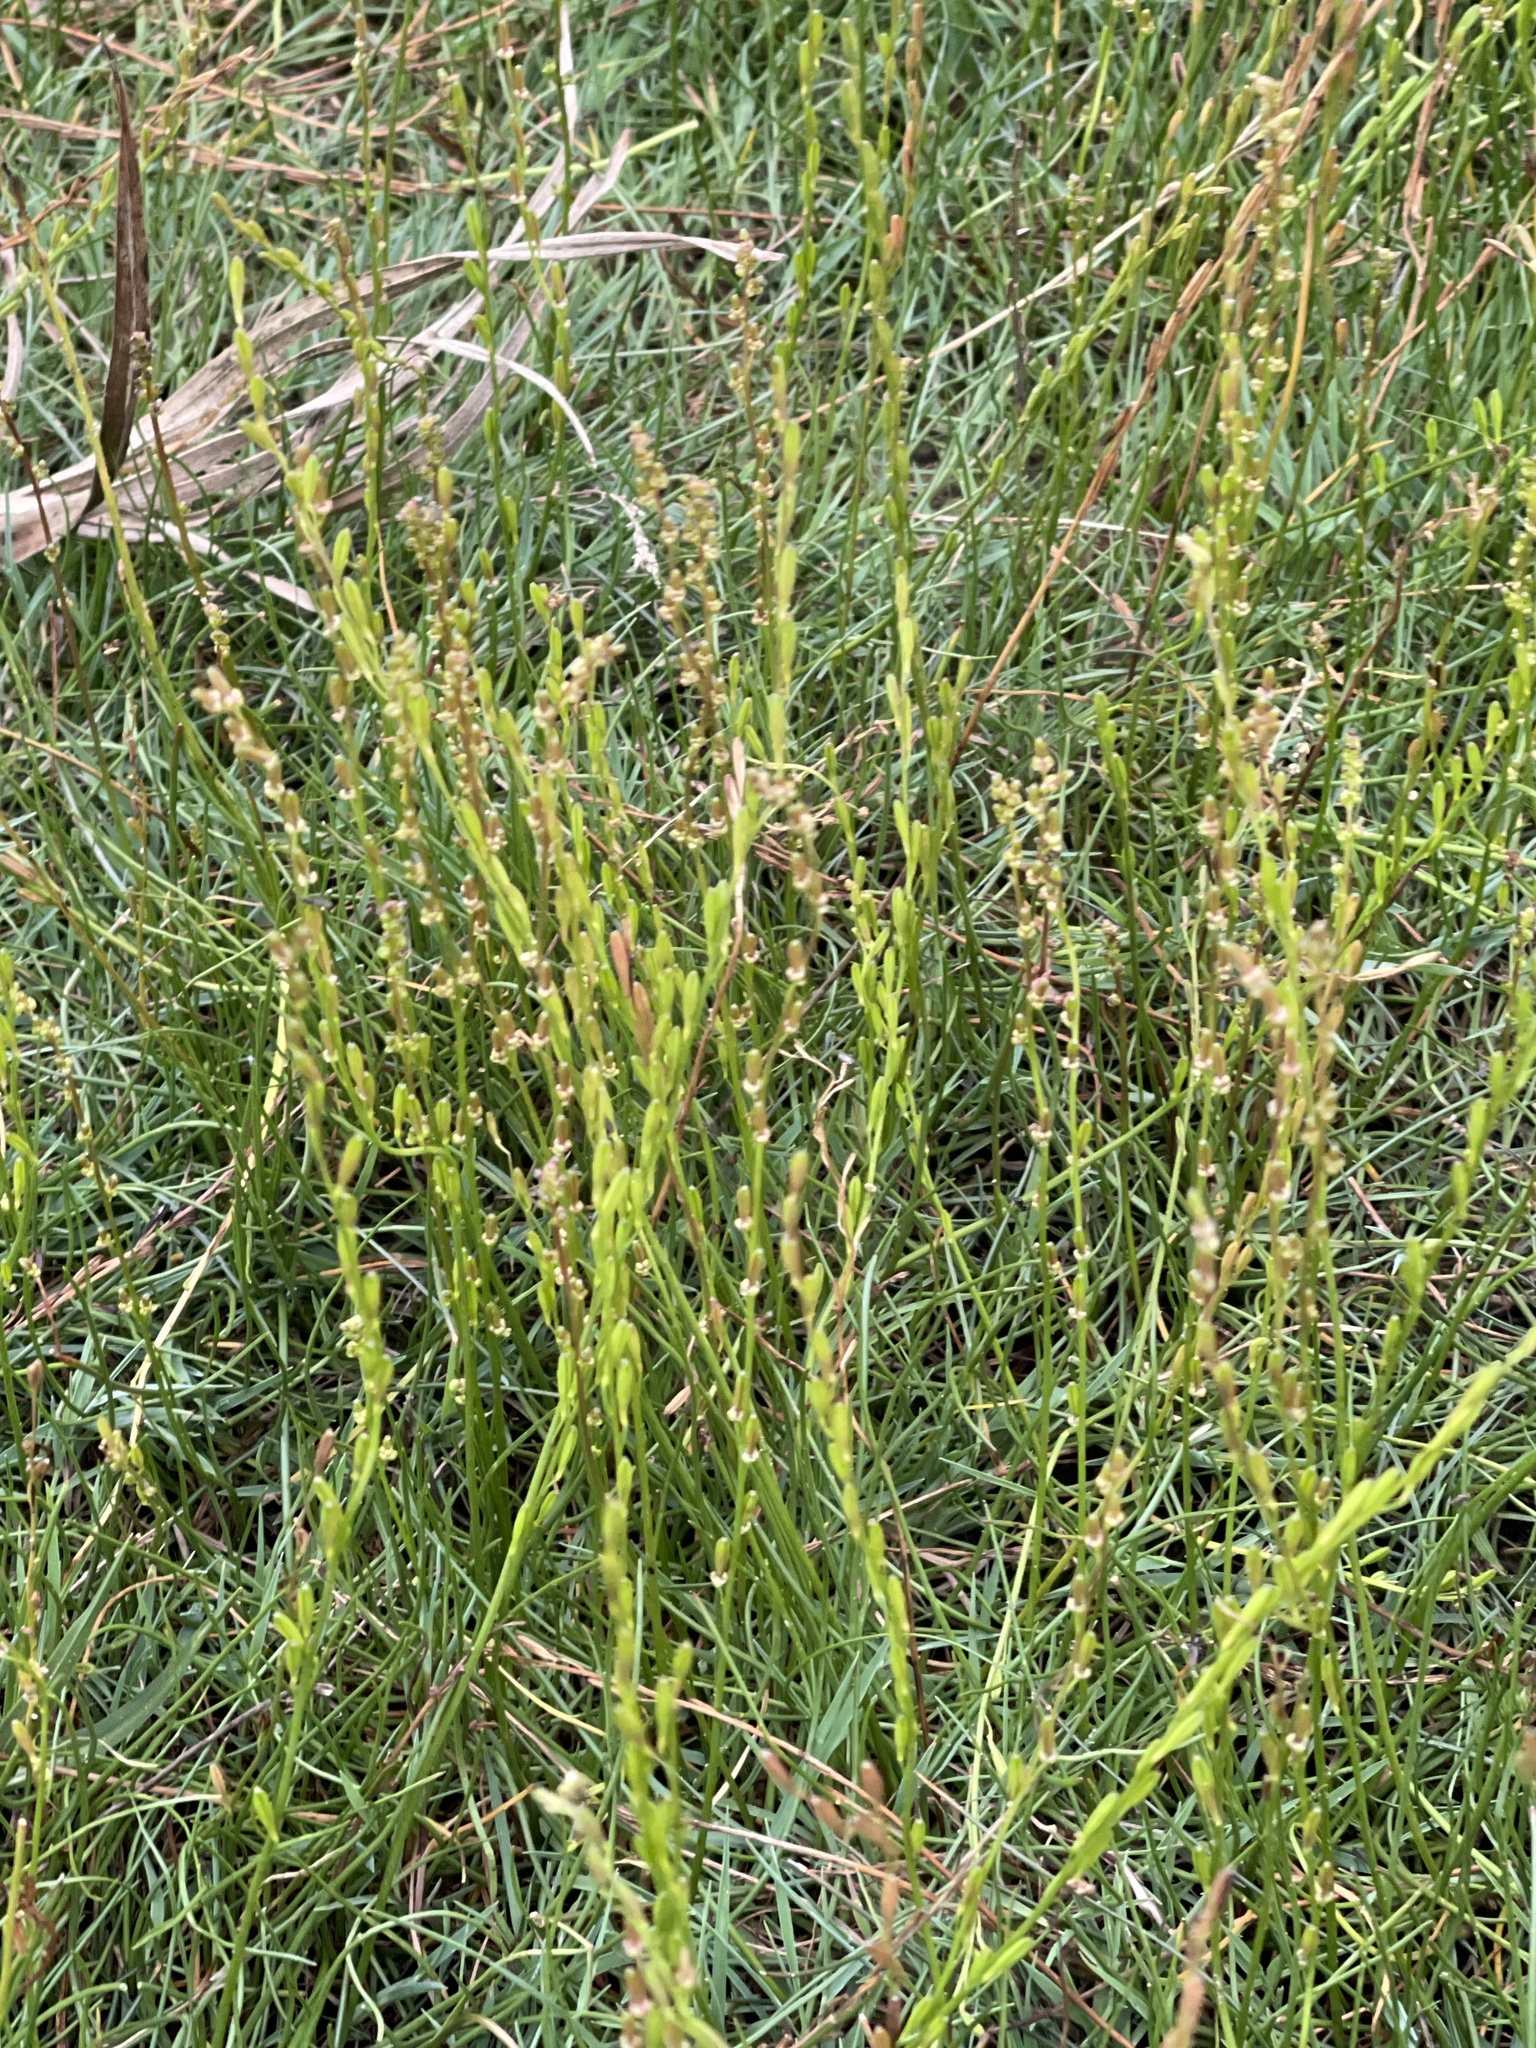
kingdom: Plantae
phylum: Tracheophyta
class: Liliopsida
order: Alismatales
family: Juncaginaceae
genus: Triglochin
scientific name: Triglochin palustris
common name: Marsh arrowgrass
